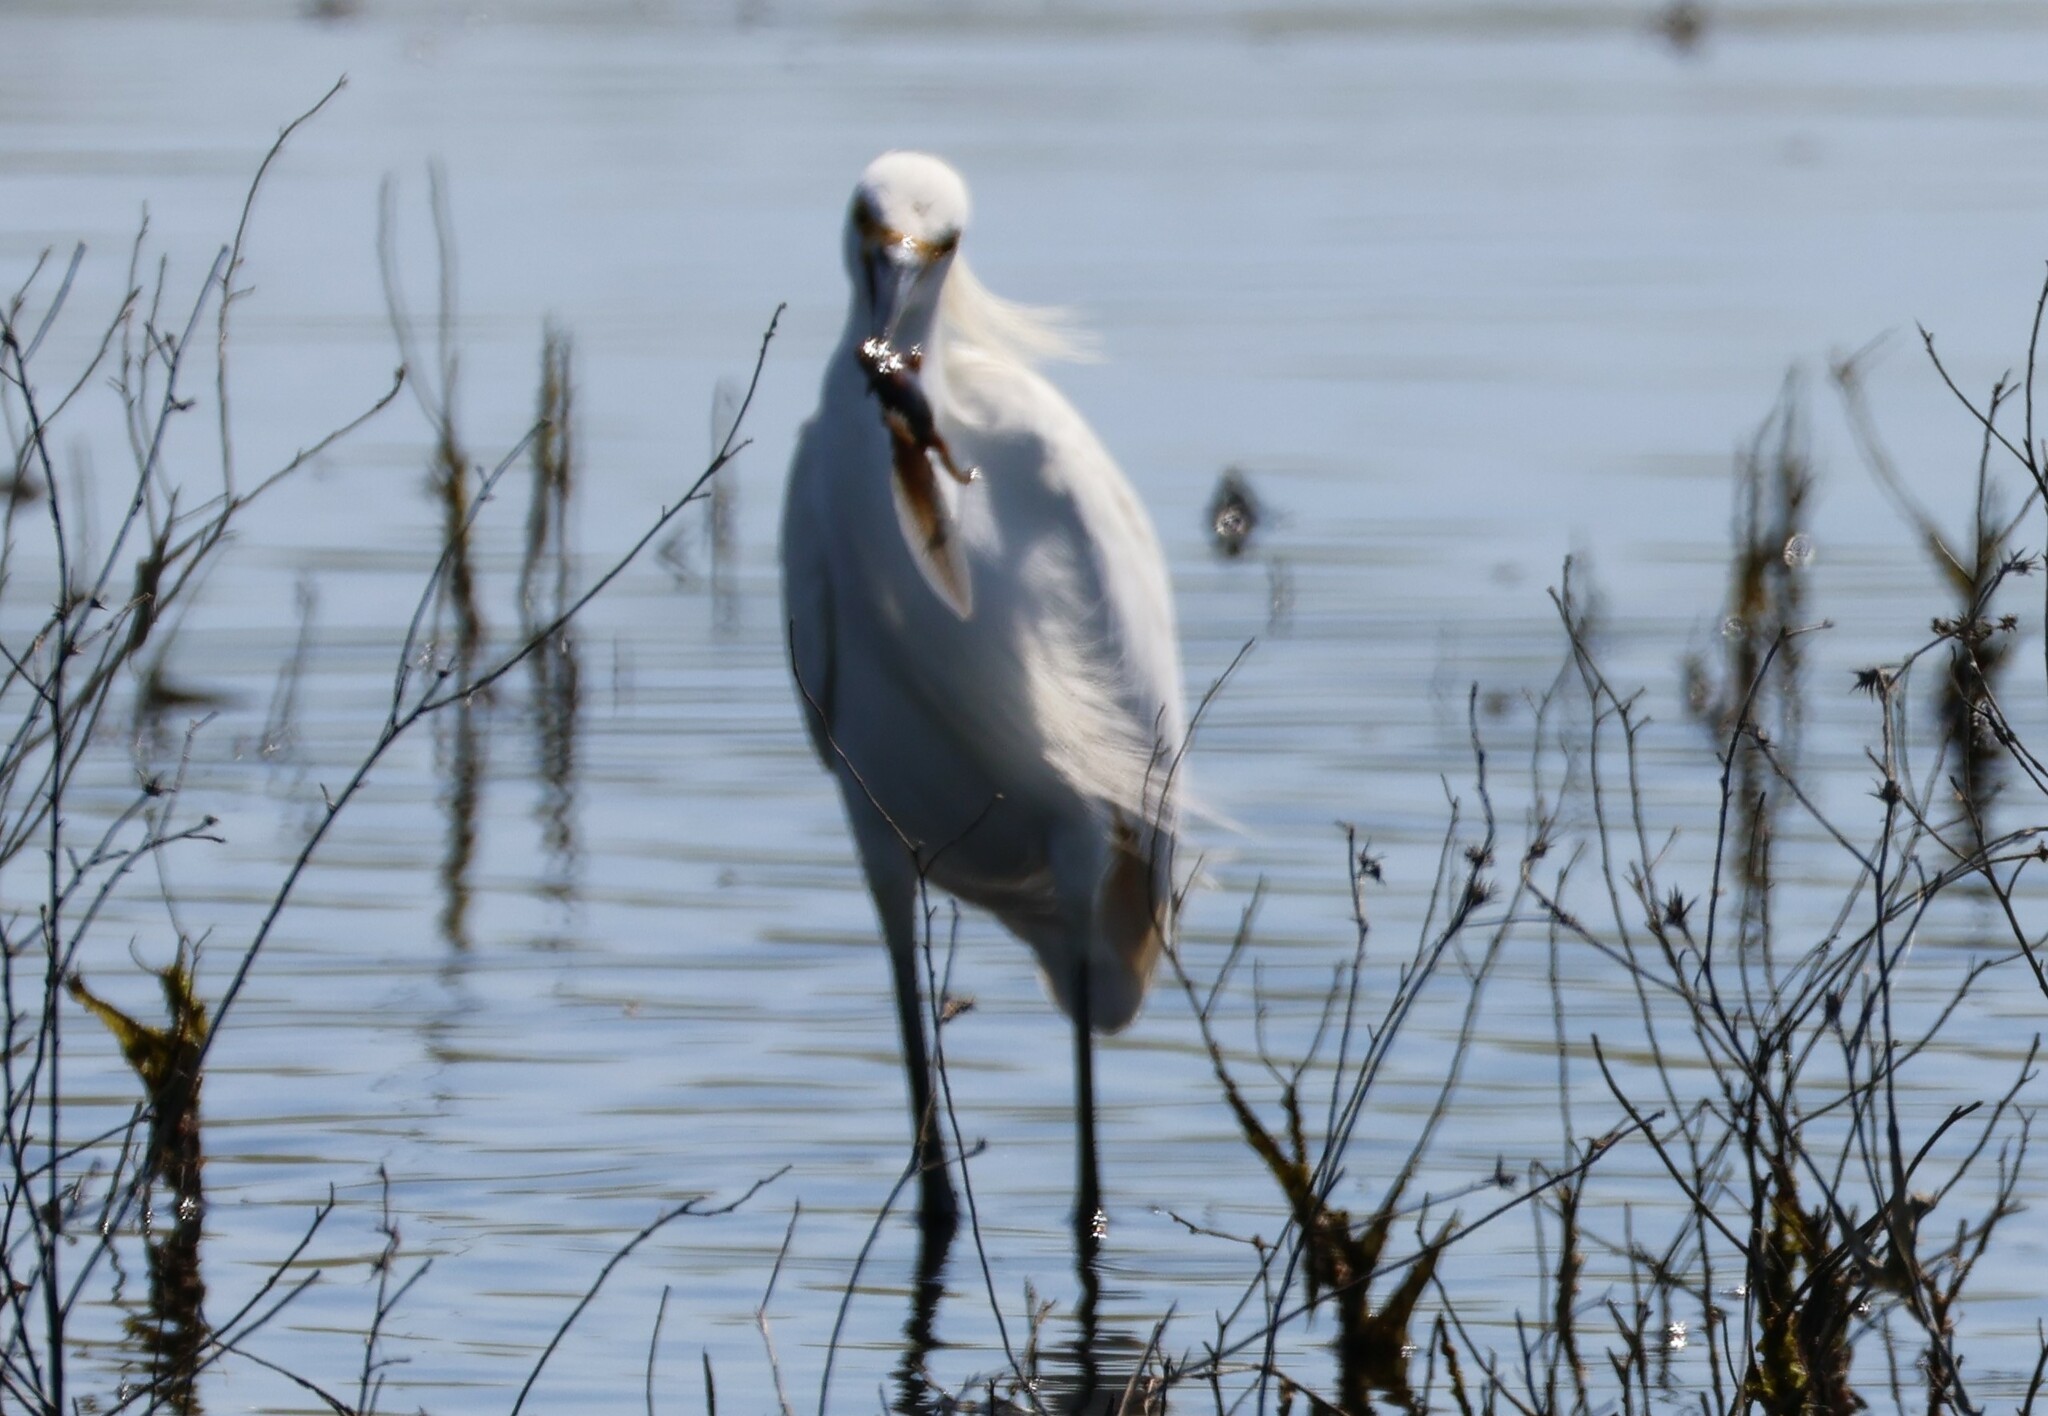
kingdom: Animalia
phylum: Chordata
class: Aves
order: Pelecaniformes
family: Ardeidae
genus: Egretta
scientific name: Egretta thula
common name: Snowy egret
